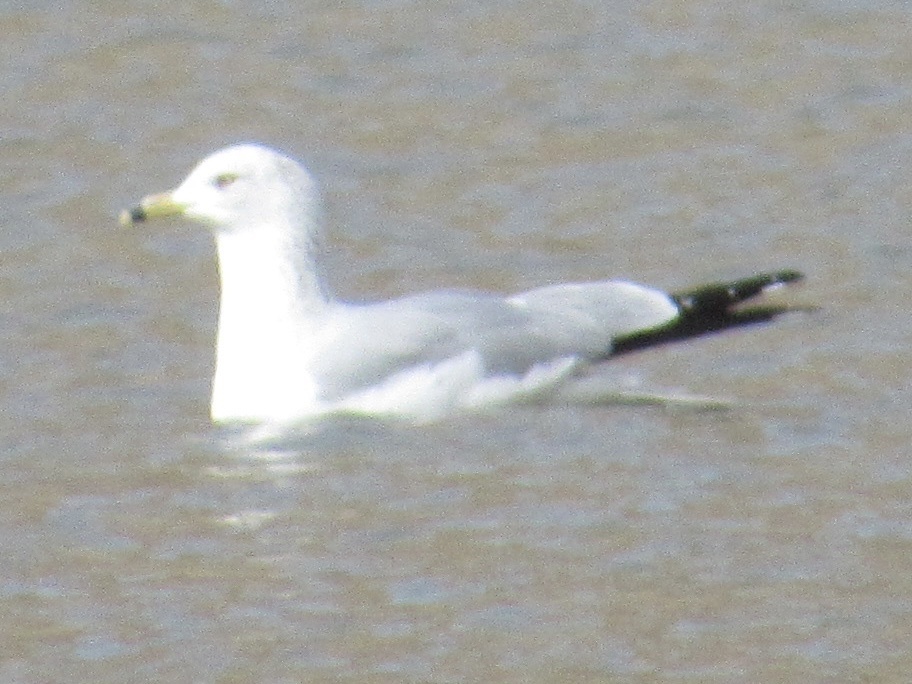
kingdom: Animalia
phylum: Chordata
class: Aves
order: Charadriiformes
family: Laridae
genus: Larus
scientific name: Larus delawarensis
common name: Ring-billed gull
